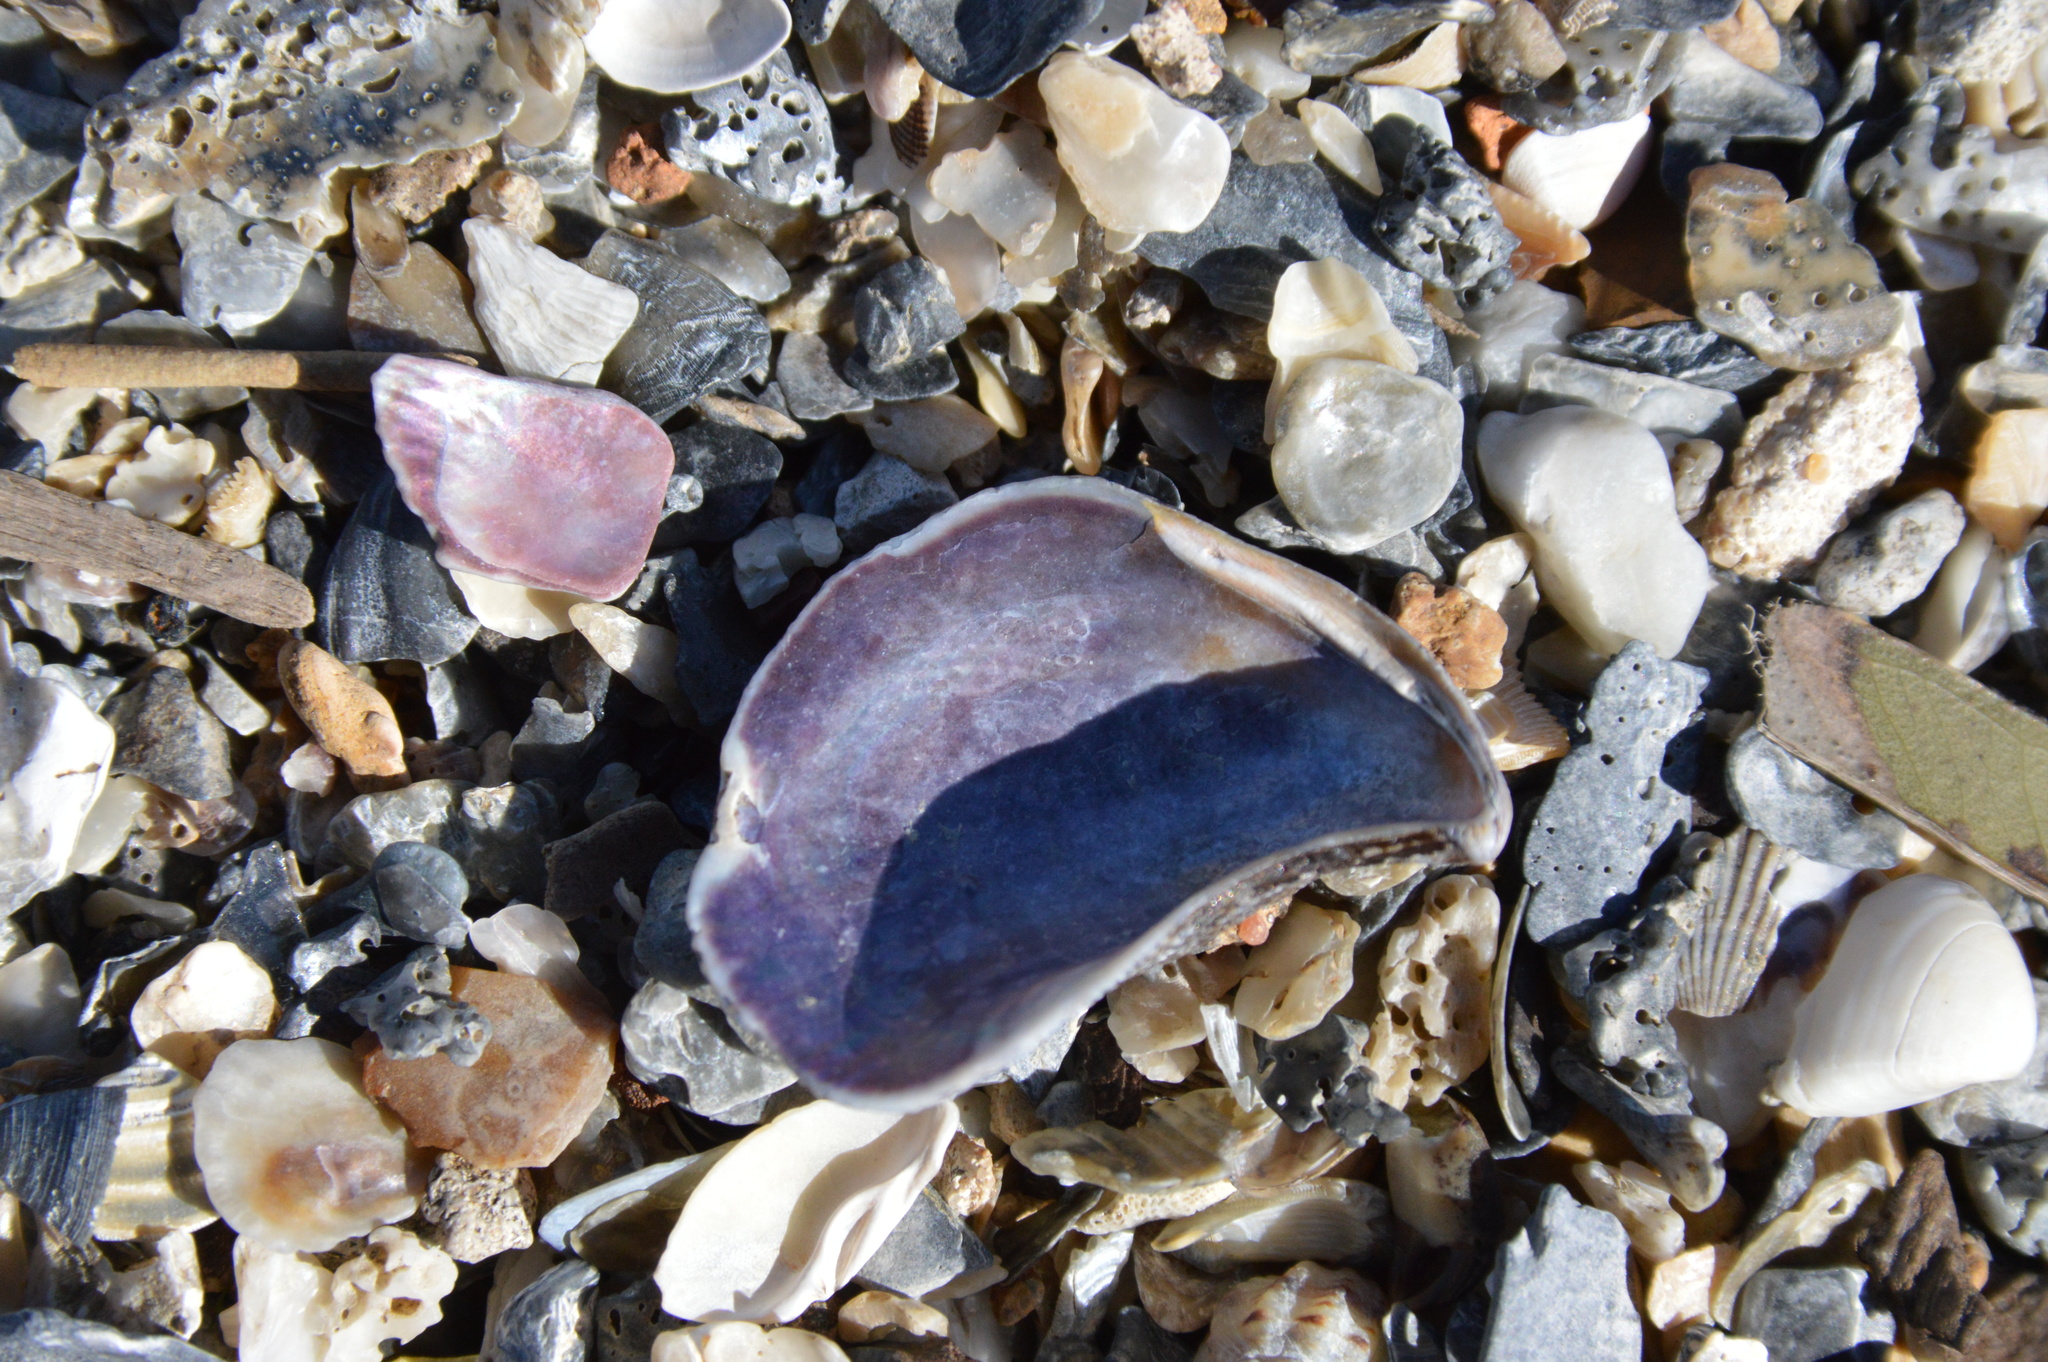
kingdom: Animalia
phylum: Mollusca
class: Bivalvia
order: Mytilida
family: Mytilidae
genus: Ischadium
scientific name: Ischadium recurvum
